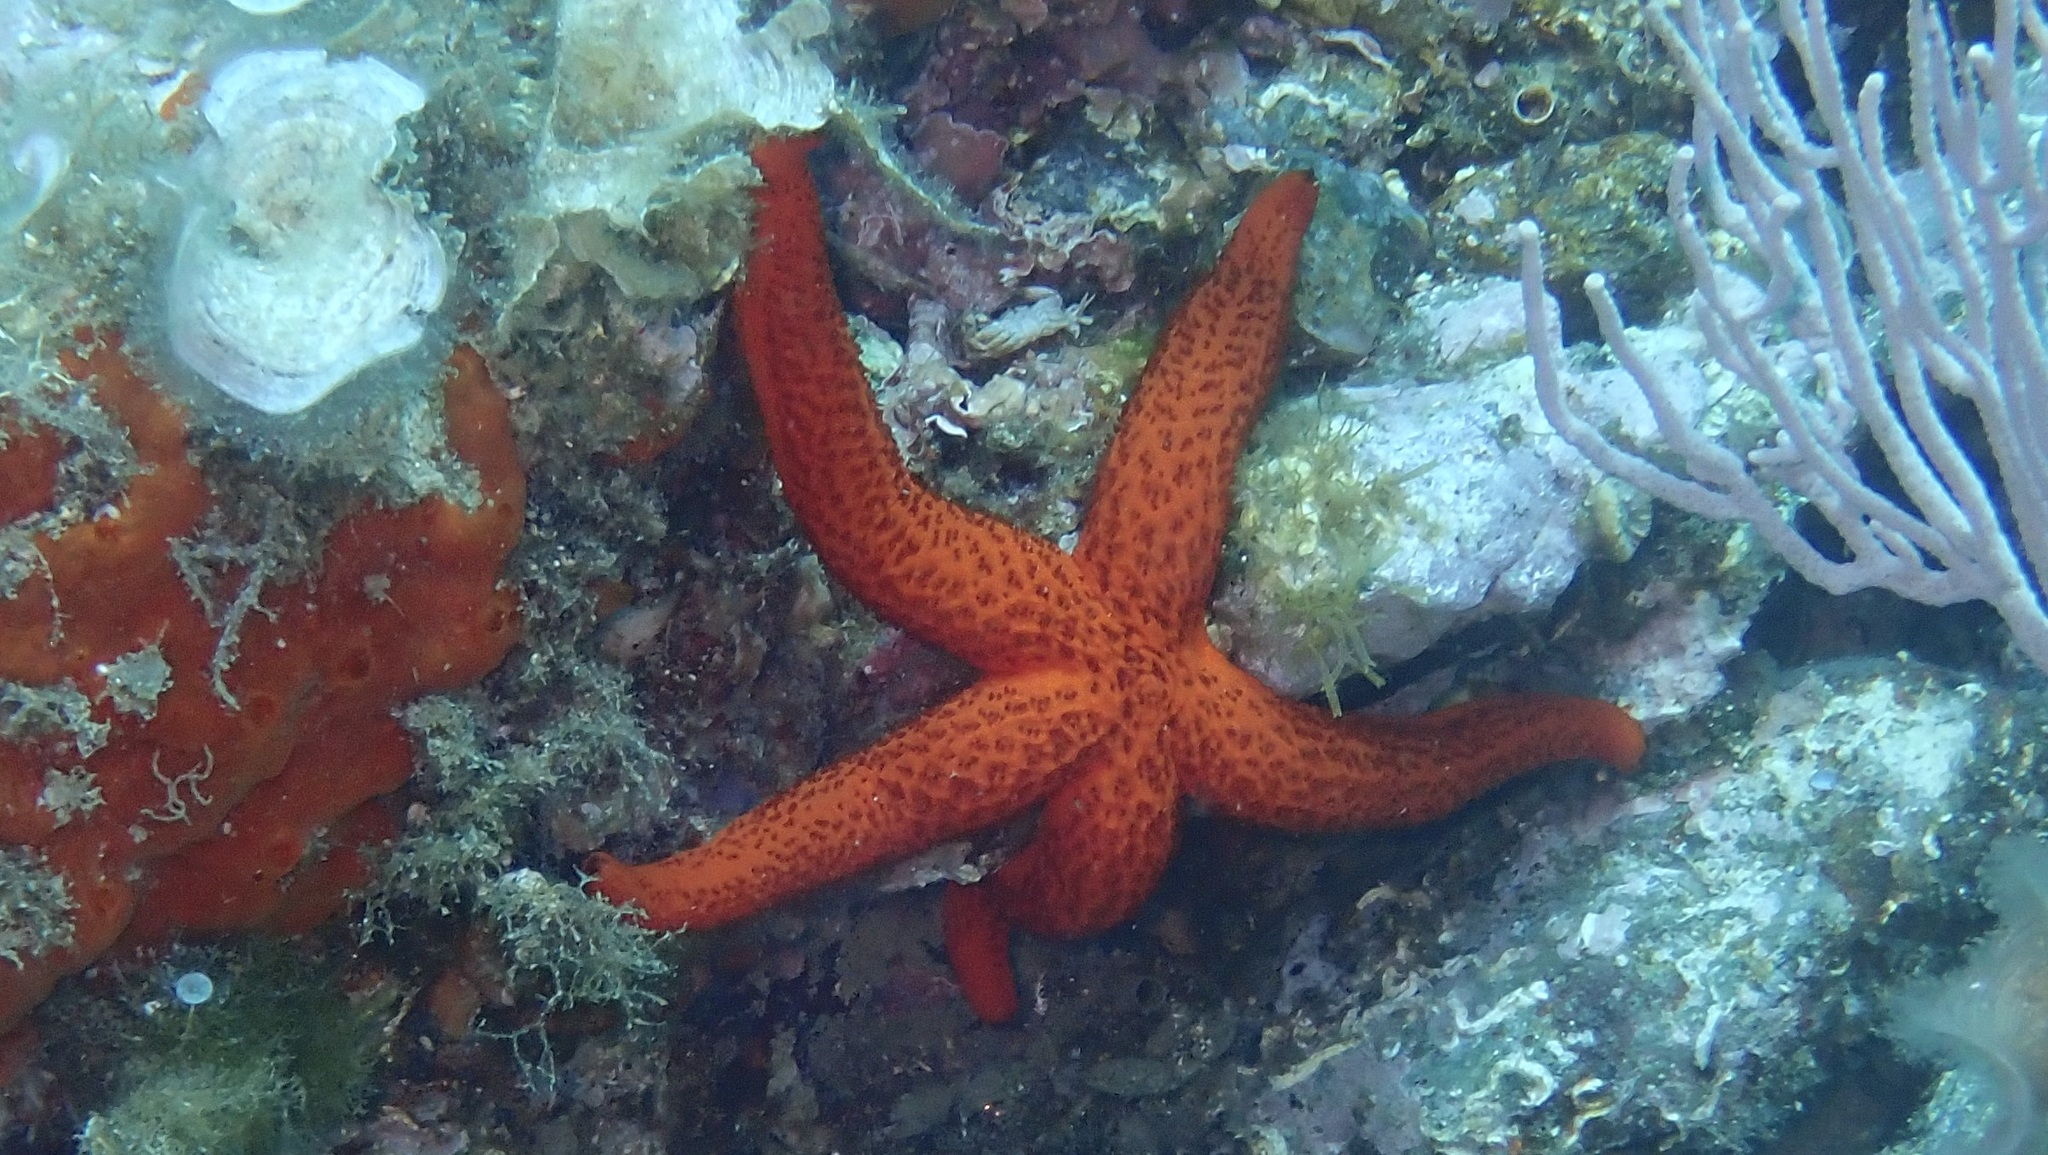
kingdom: Animalia
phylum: Echinodermata
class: Asteroidea
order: Spinulosida
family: Echinasteridae
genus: Echinaster
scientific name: Echinaster sepositus
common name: Red starfish
